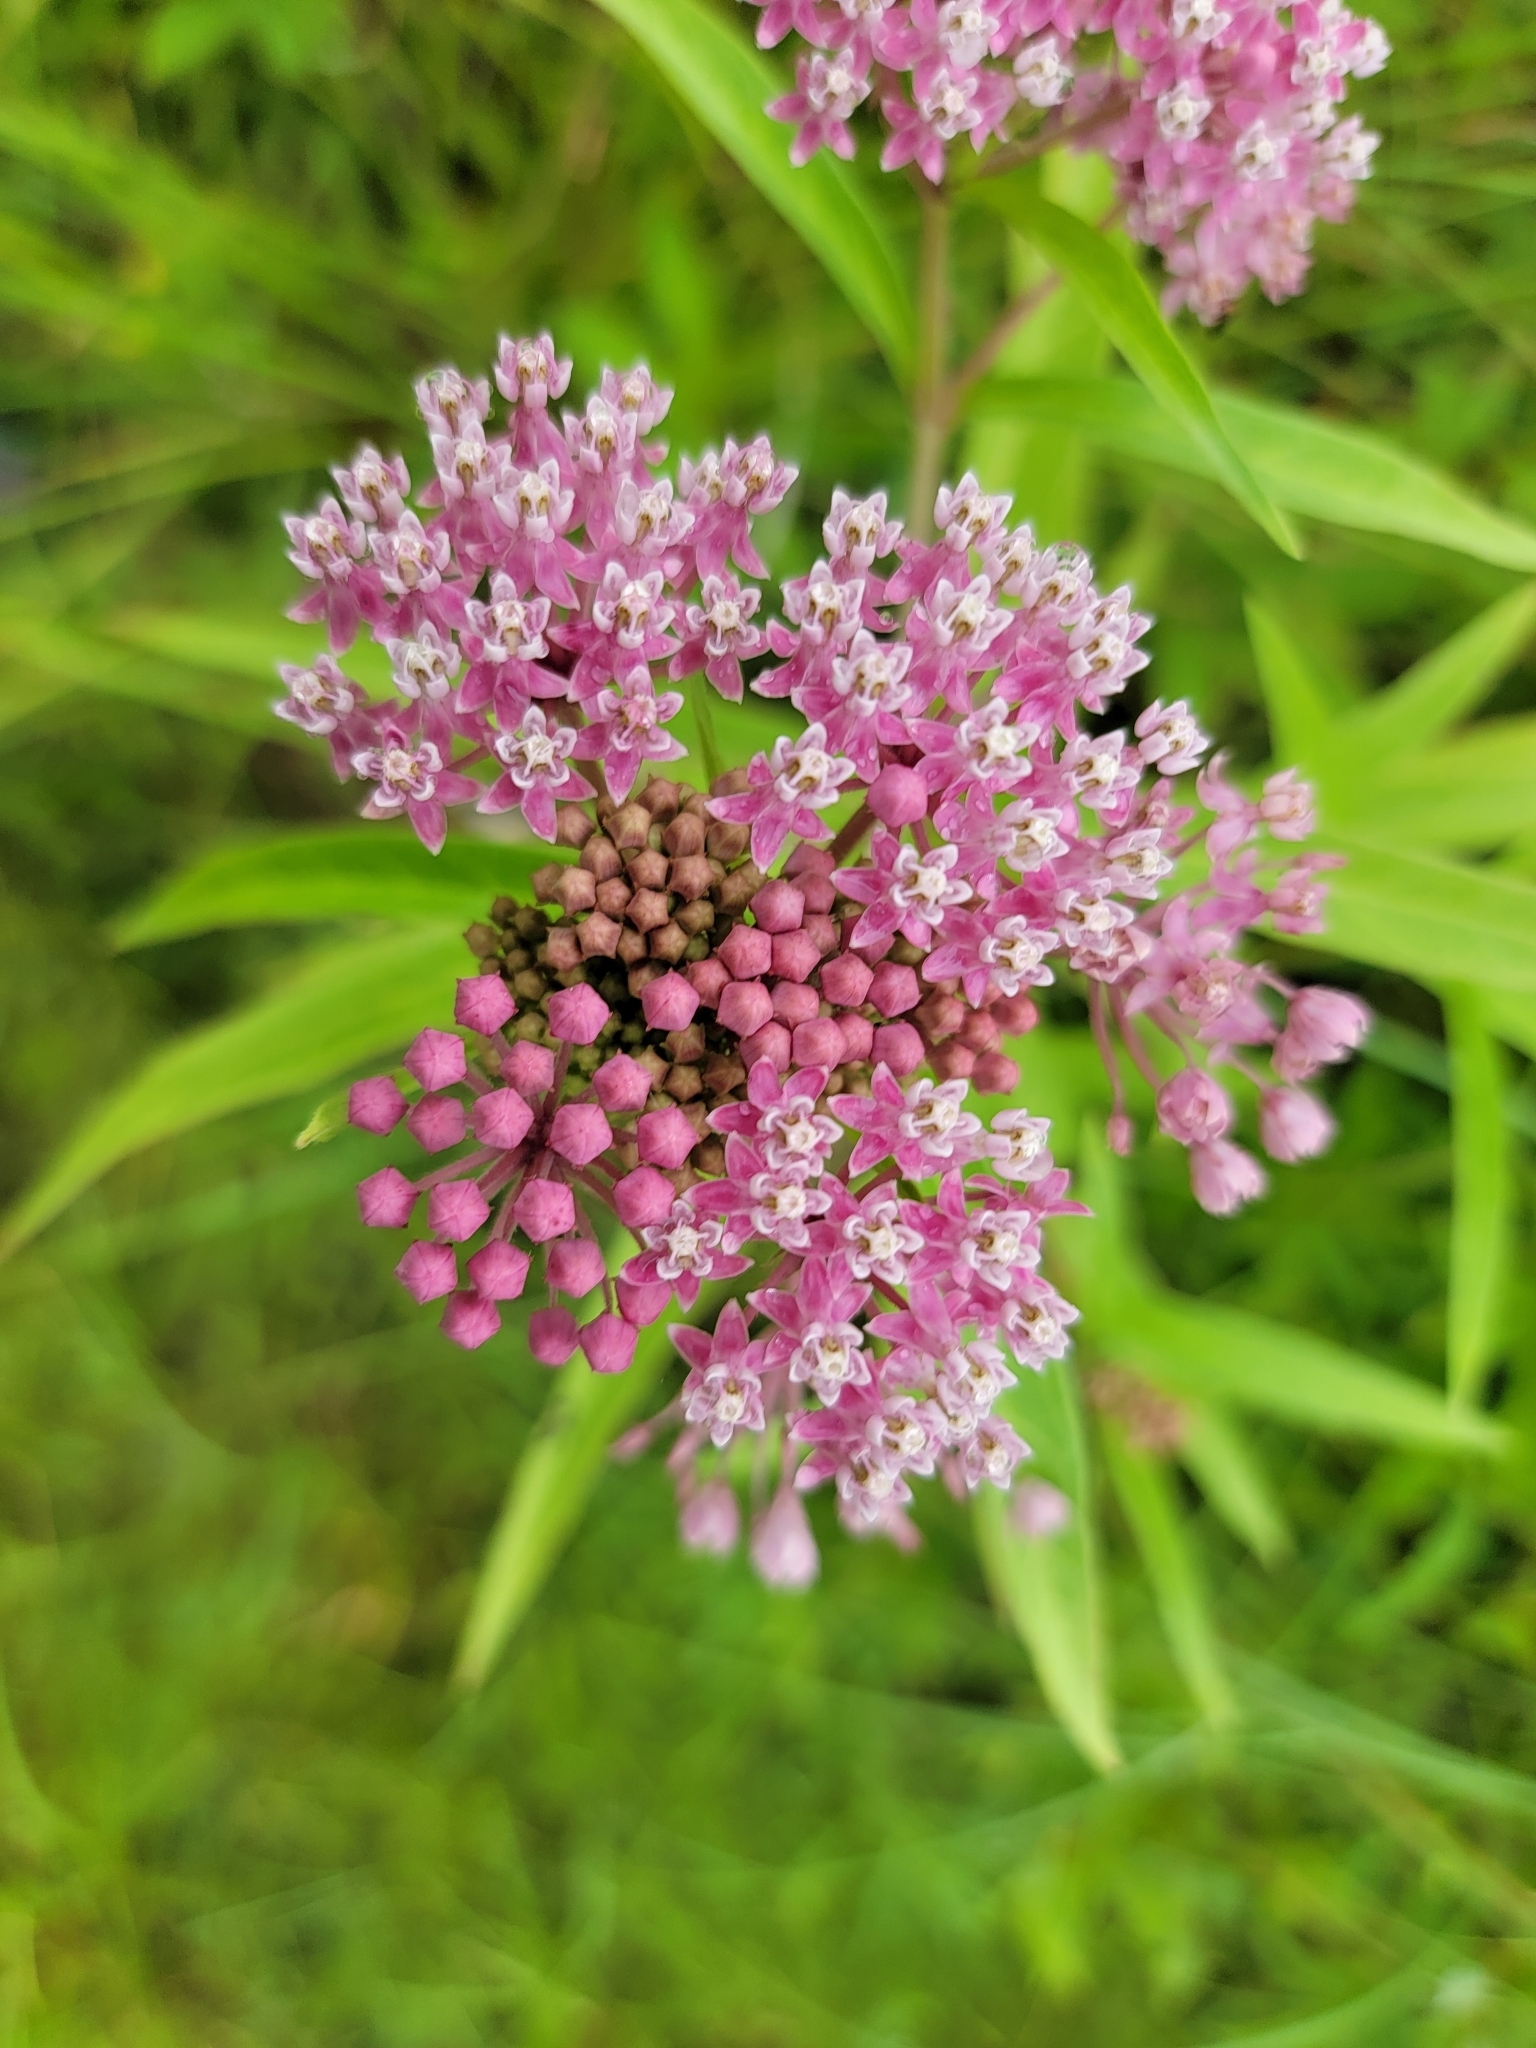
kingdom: Plantae
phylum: Tracheophyta
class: Magnoliopsida
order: Gentianales
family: Apocynaceae
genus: Asclepias
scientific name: Asclepias incarnata
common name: Swamp milkweed
